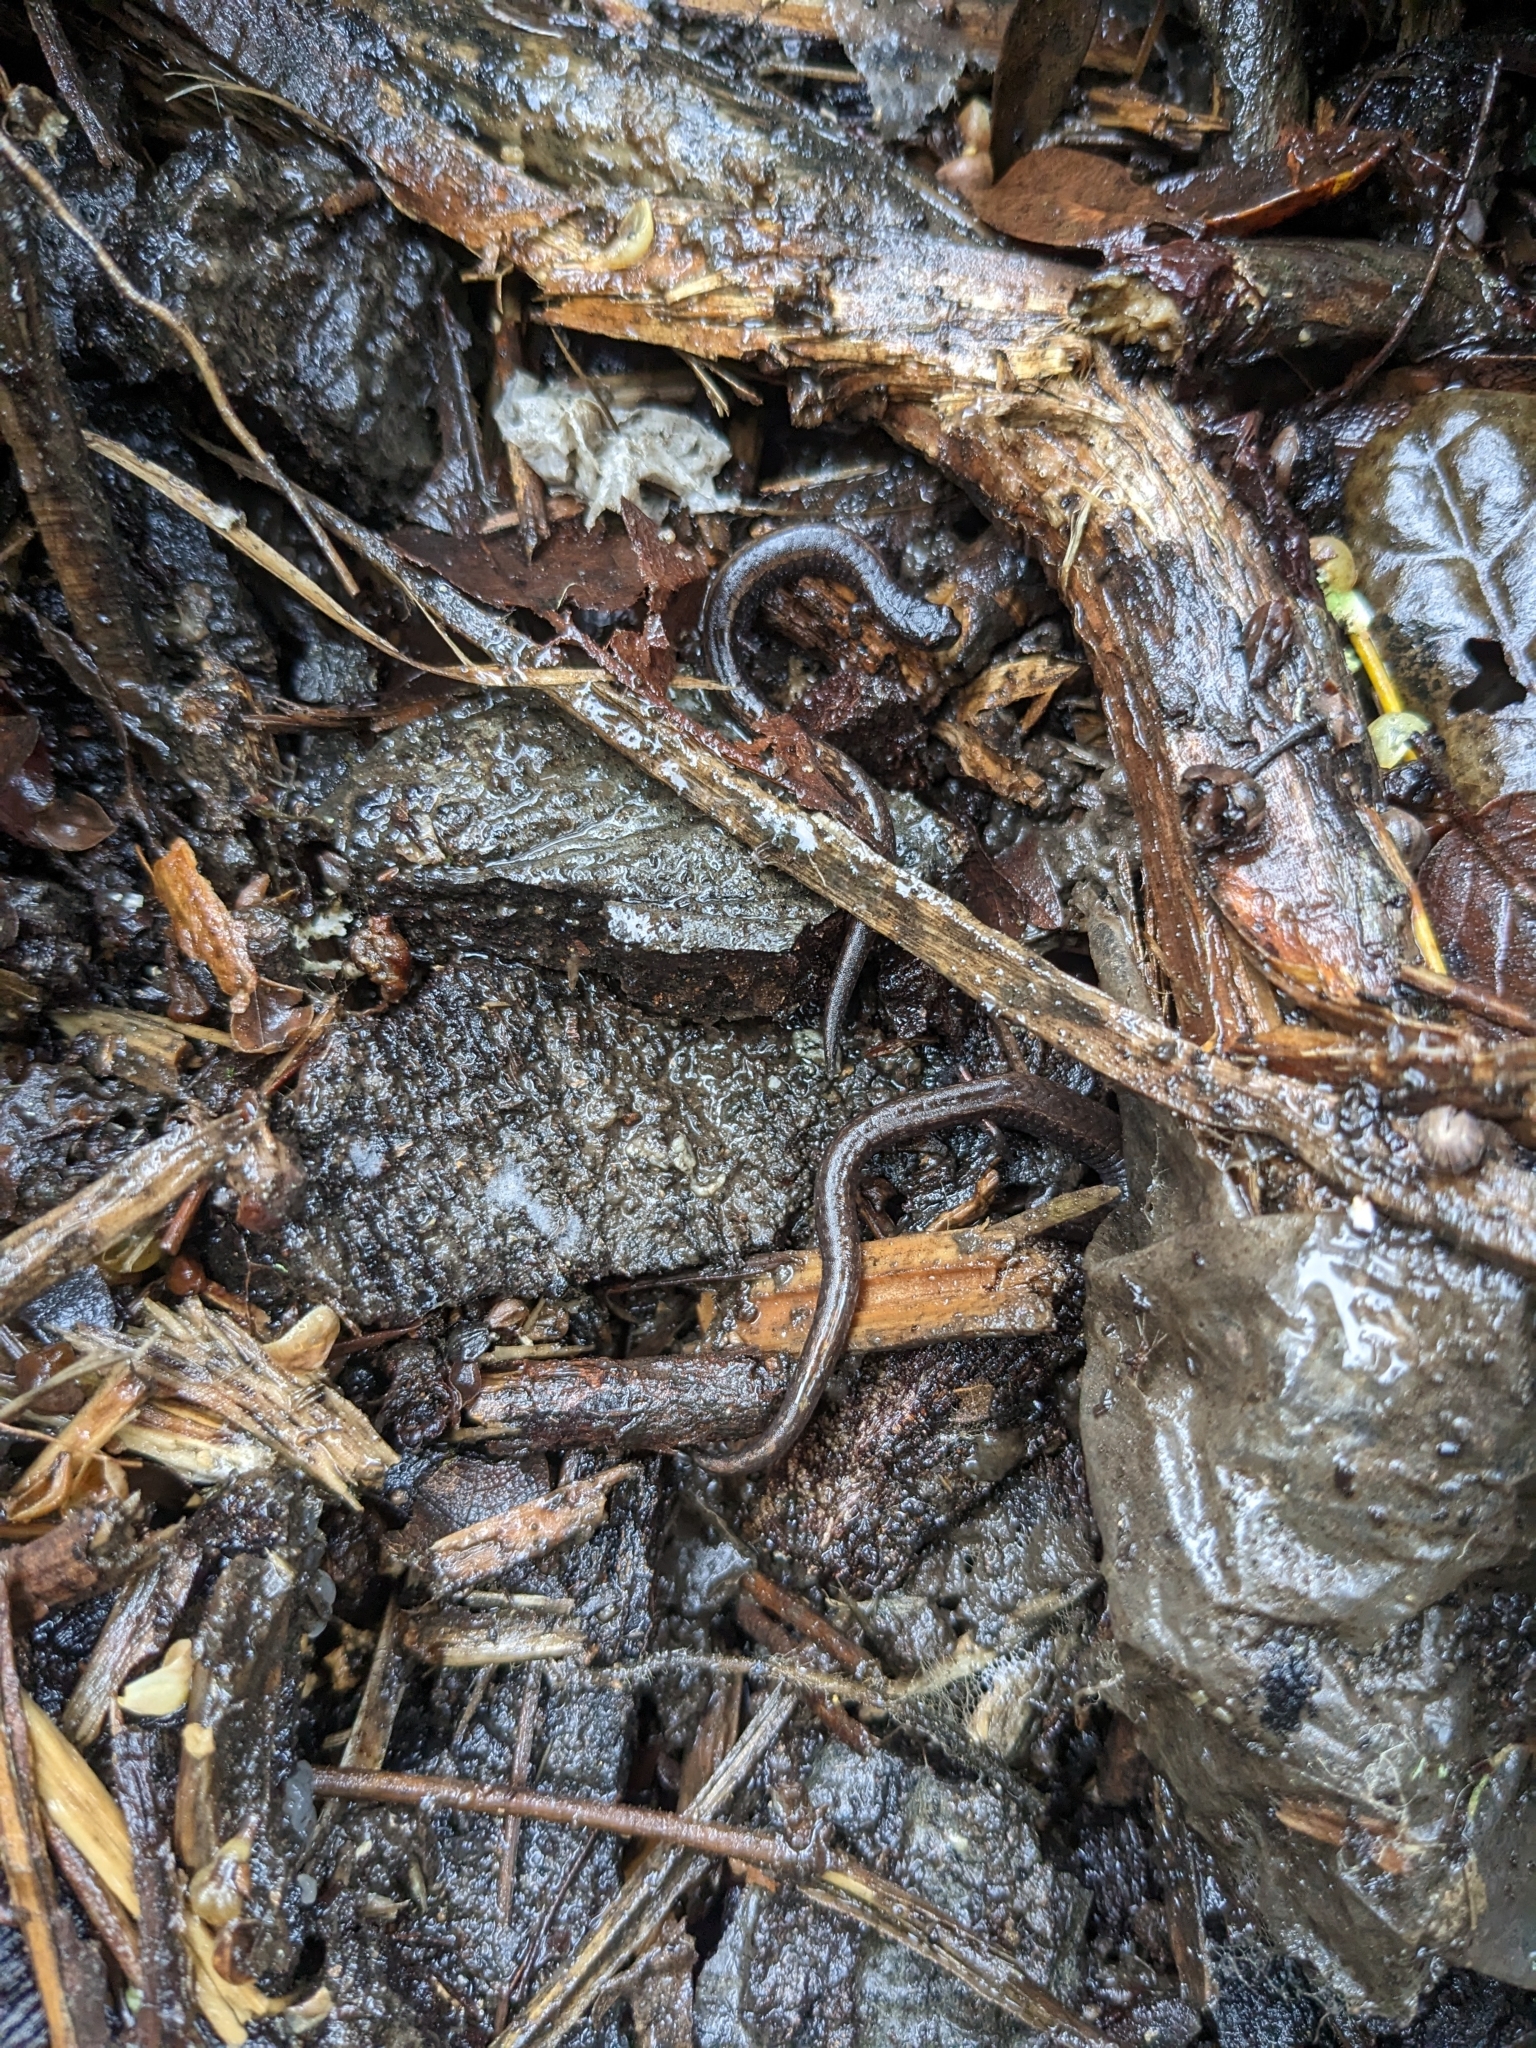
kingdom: Animalia
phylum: Chordata
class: Amphibia
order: Caudata
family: Plethodontidae
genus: Batrachoseps
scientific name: Batrachoseps attenuatus
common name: California slender salamander
